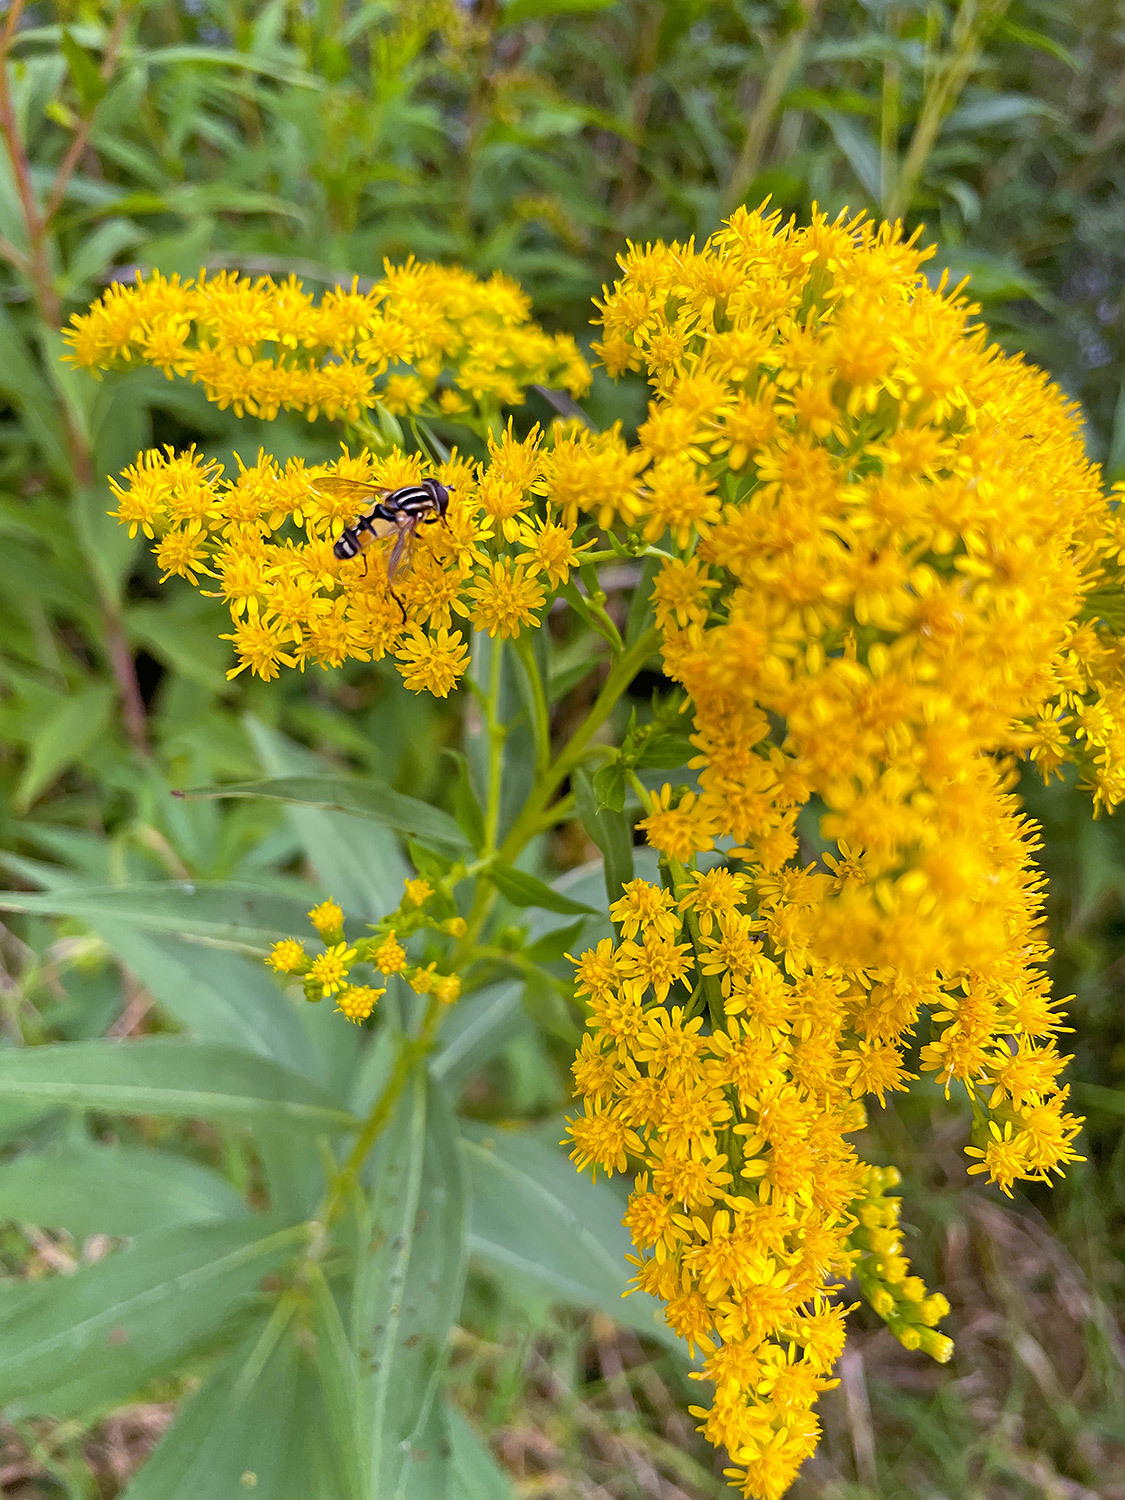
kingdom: Animalia
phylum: Arthropoda
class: Insecta
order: Diptera
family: Syrphidae
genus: Helophilus
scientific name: Helophilus pendulus
